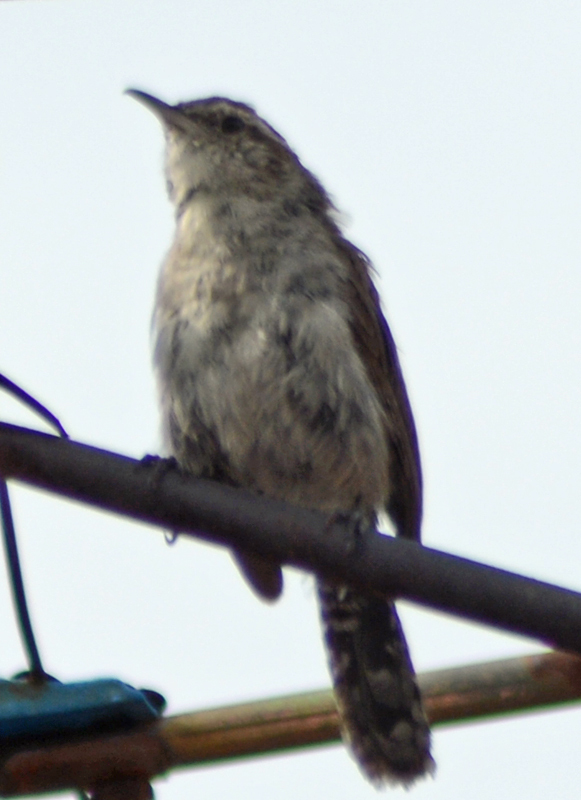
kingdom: Animalia
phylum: Chordata
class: Aves
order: Passeriformes
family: Troglodytidae
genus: Thryomanes
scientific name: Thryomanes bewickii
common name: Bewick's wren
